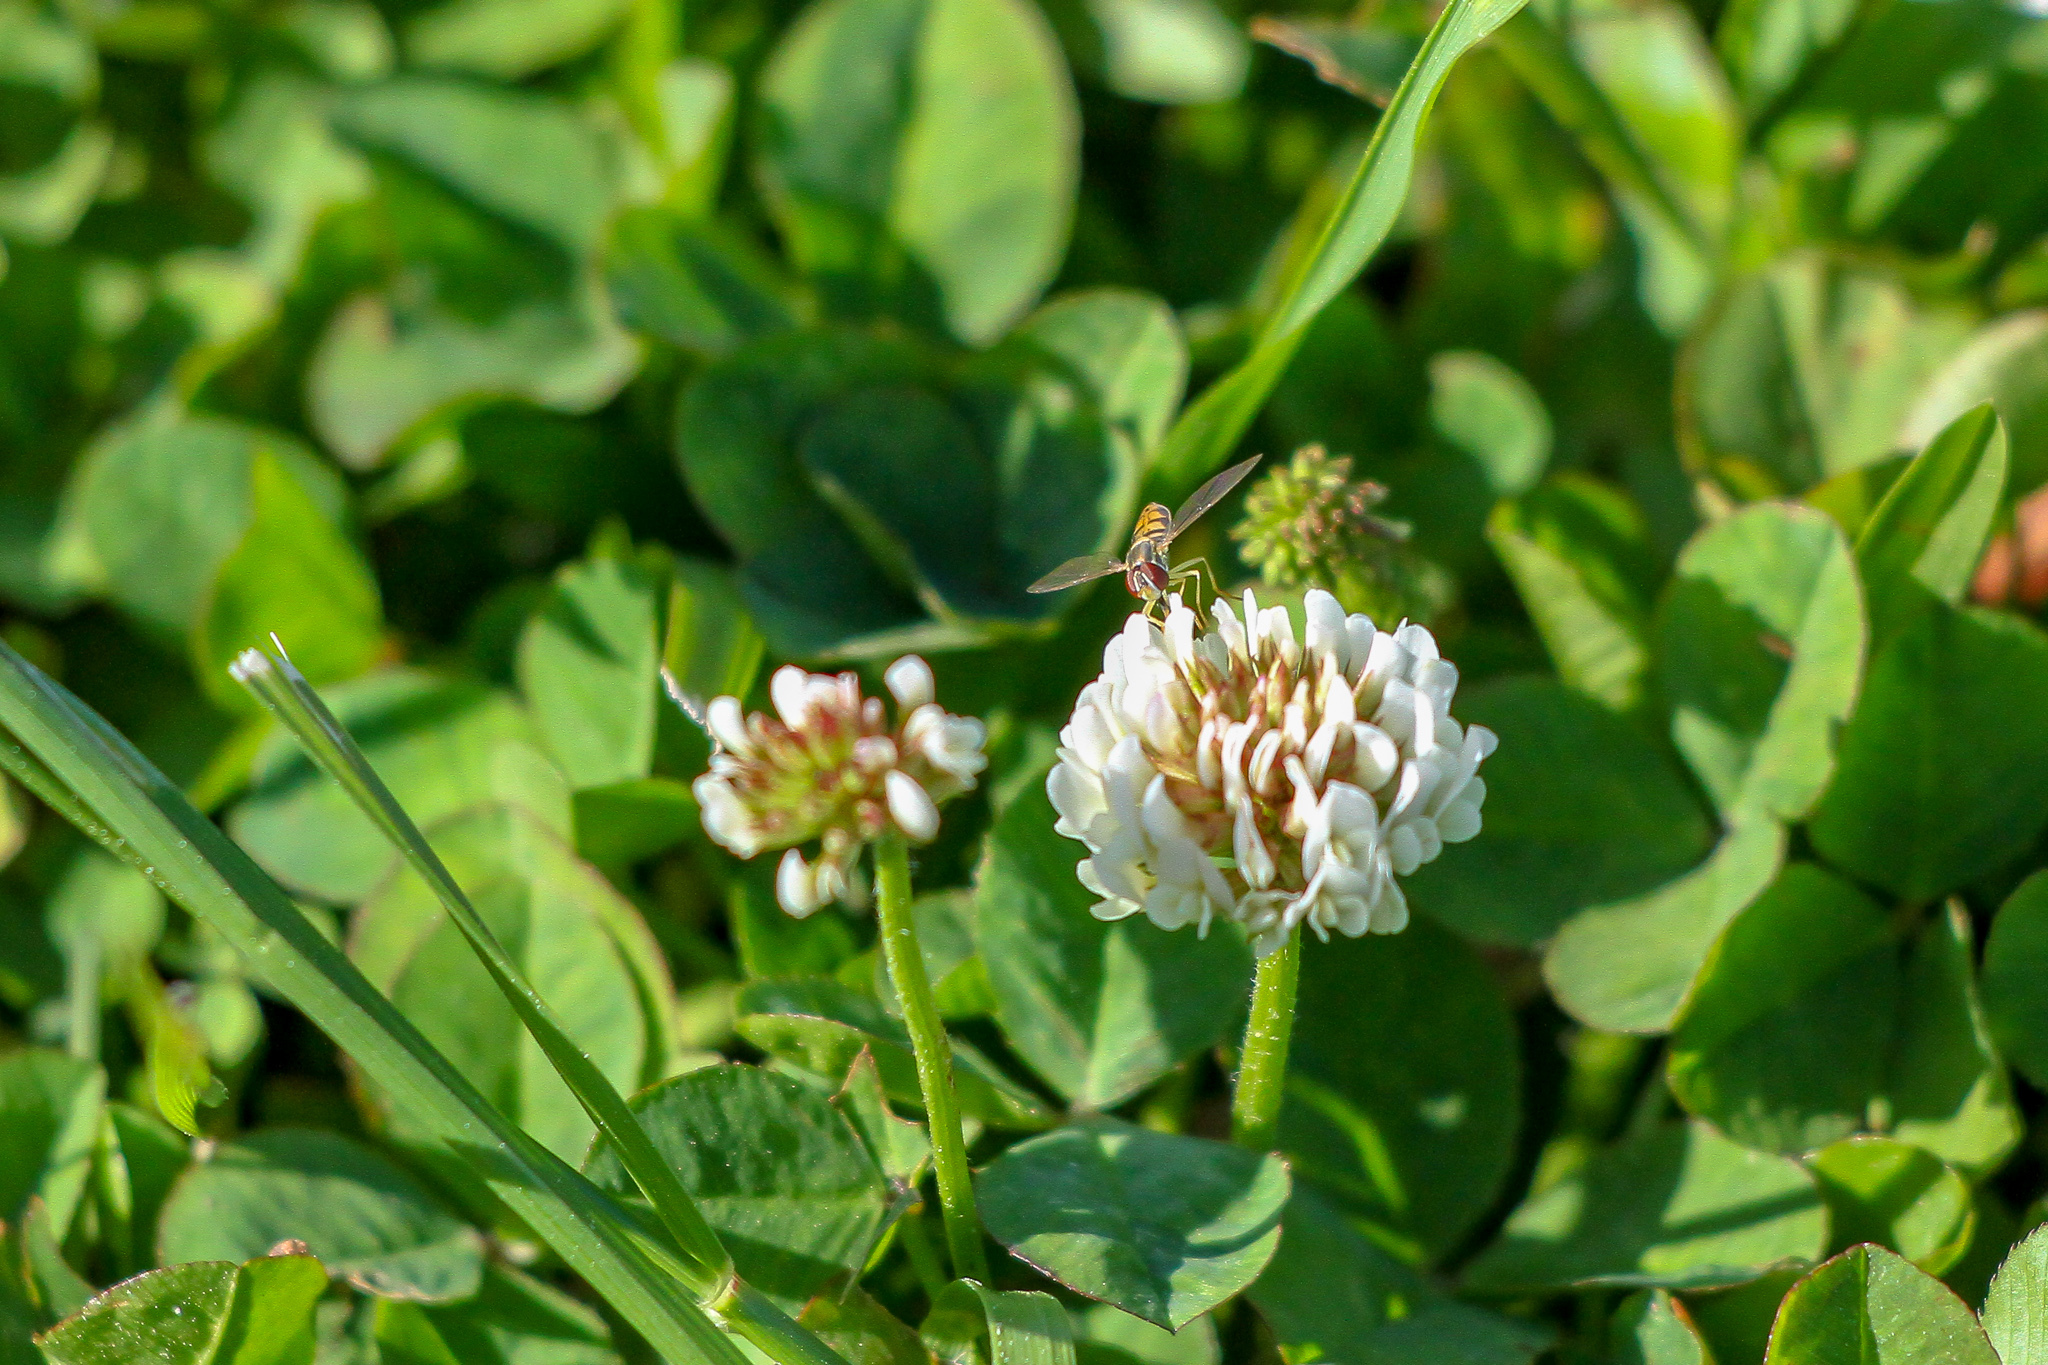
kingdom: Plantae
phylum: Tracheophyta
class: Magnoliopsida
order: Fabales
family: Fabaceae
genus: Trifolium
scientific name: Trifolium repens
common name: White clover
